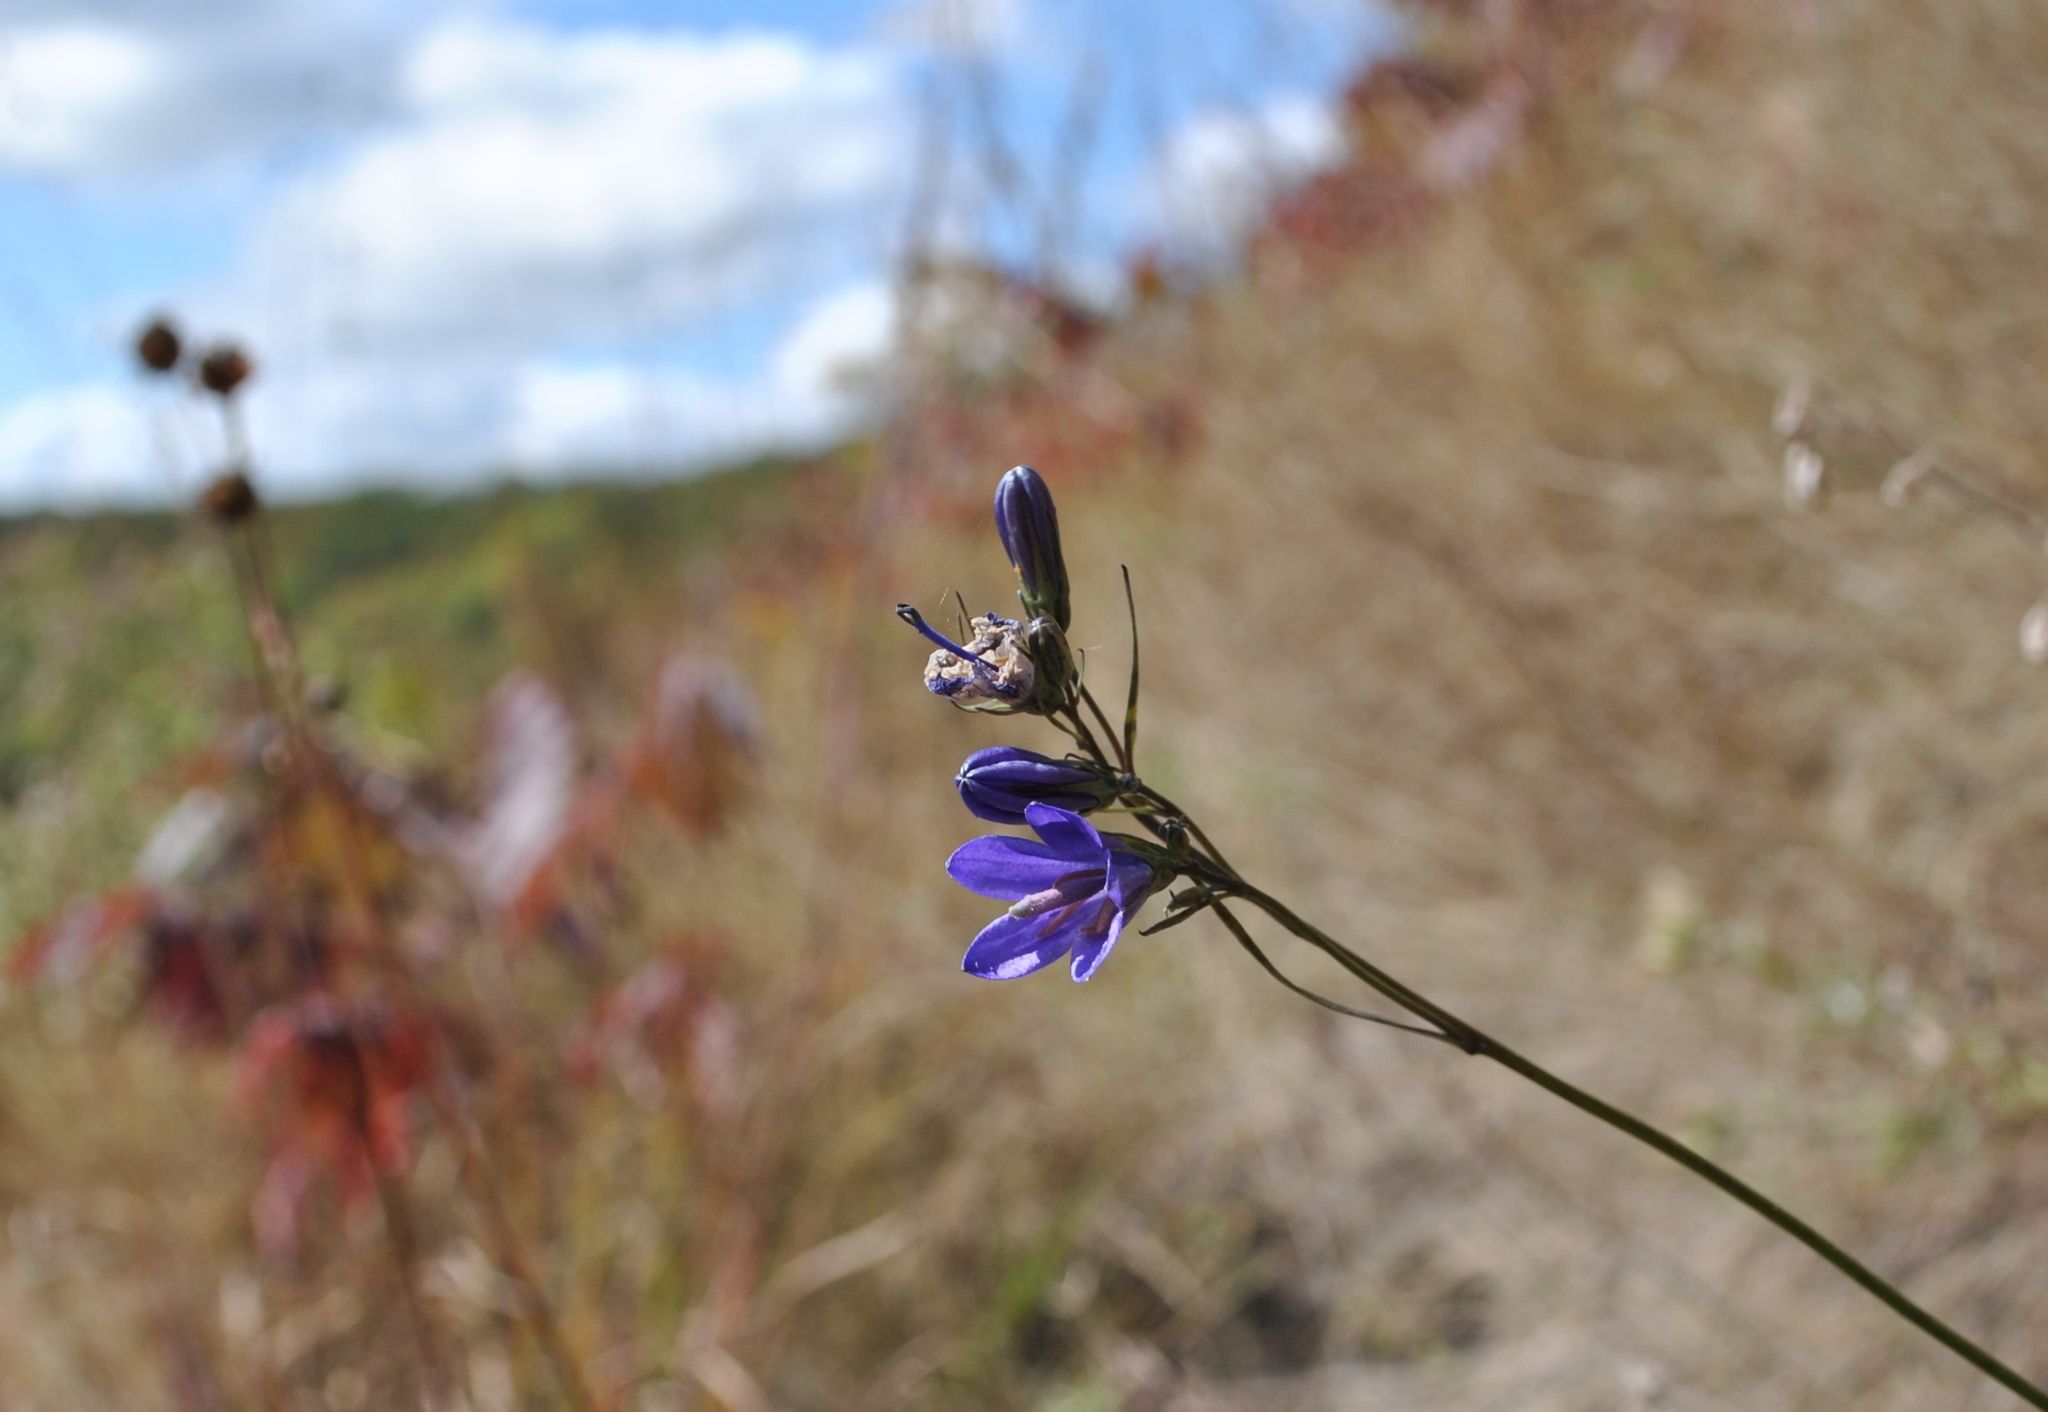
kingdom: Plantae
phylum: Tracheophyta
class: Magnoliopsida
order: Asterales
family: Campanulaceae
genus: Campanula
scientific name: Campanula intercedens
